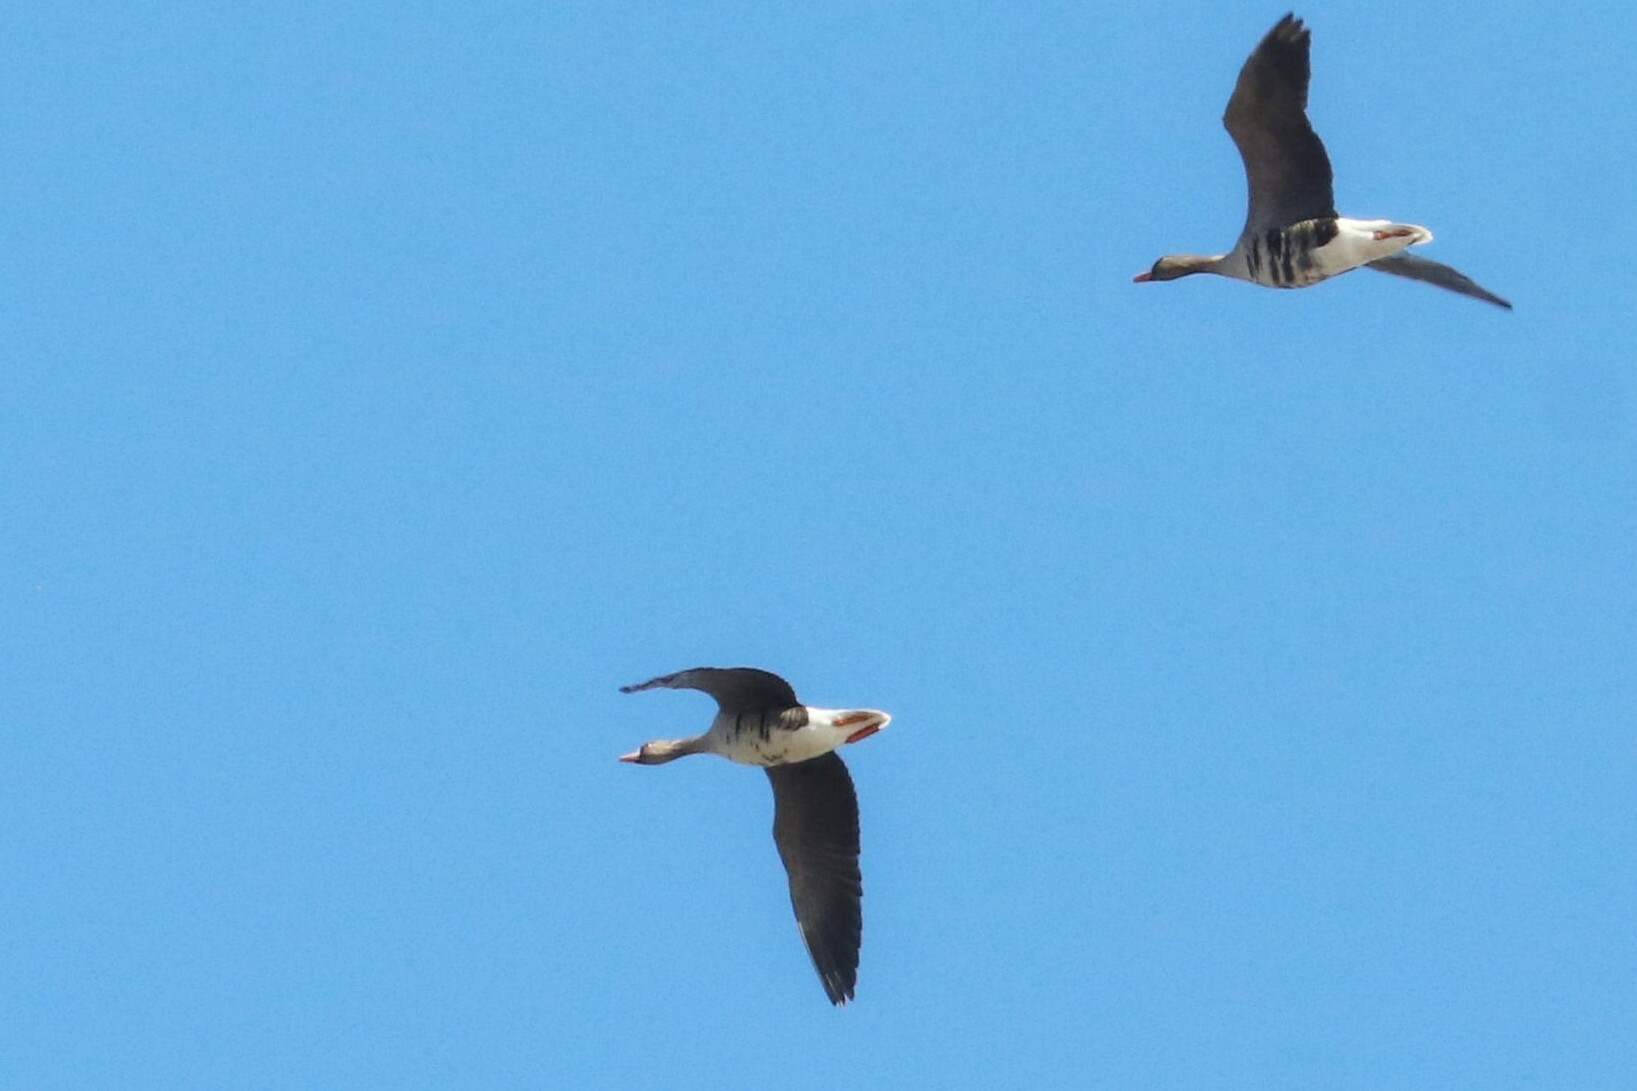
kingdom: Animalia
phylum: Chordata
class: Aves
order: Anseriformes
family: Anatidae
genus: Anser
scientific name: Anser albifrons
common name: Greater white-fronted goose
